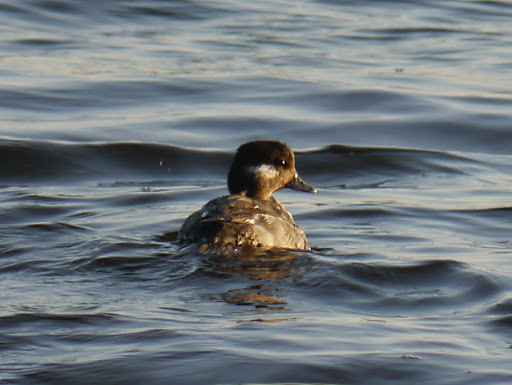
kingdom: Animalia
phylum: Chordata
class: Aves
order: Anseriformes
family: Anatidae
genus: Bucephala
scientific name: Bucephala albeola
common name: Bufflehead
